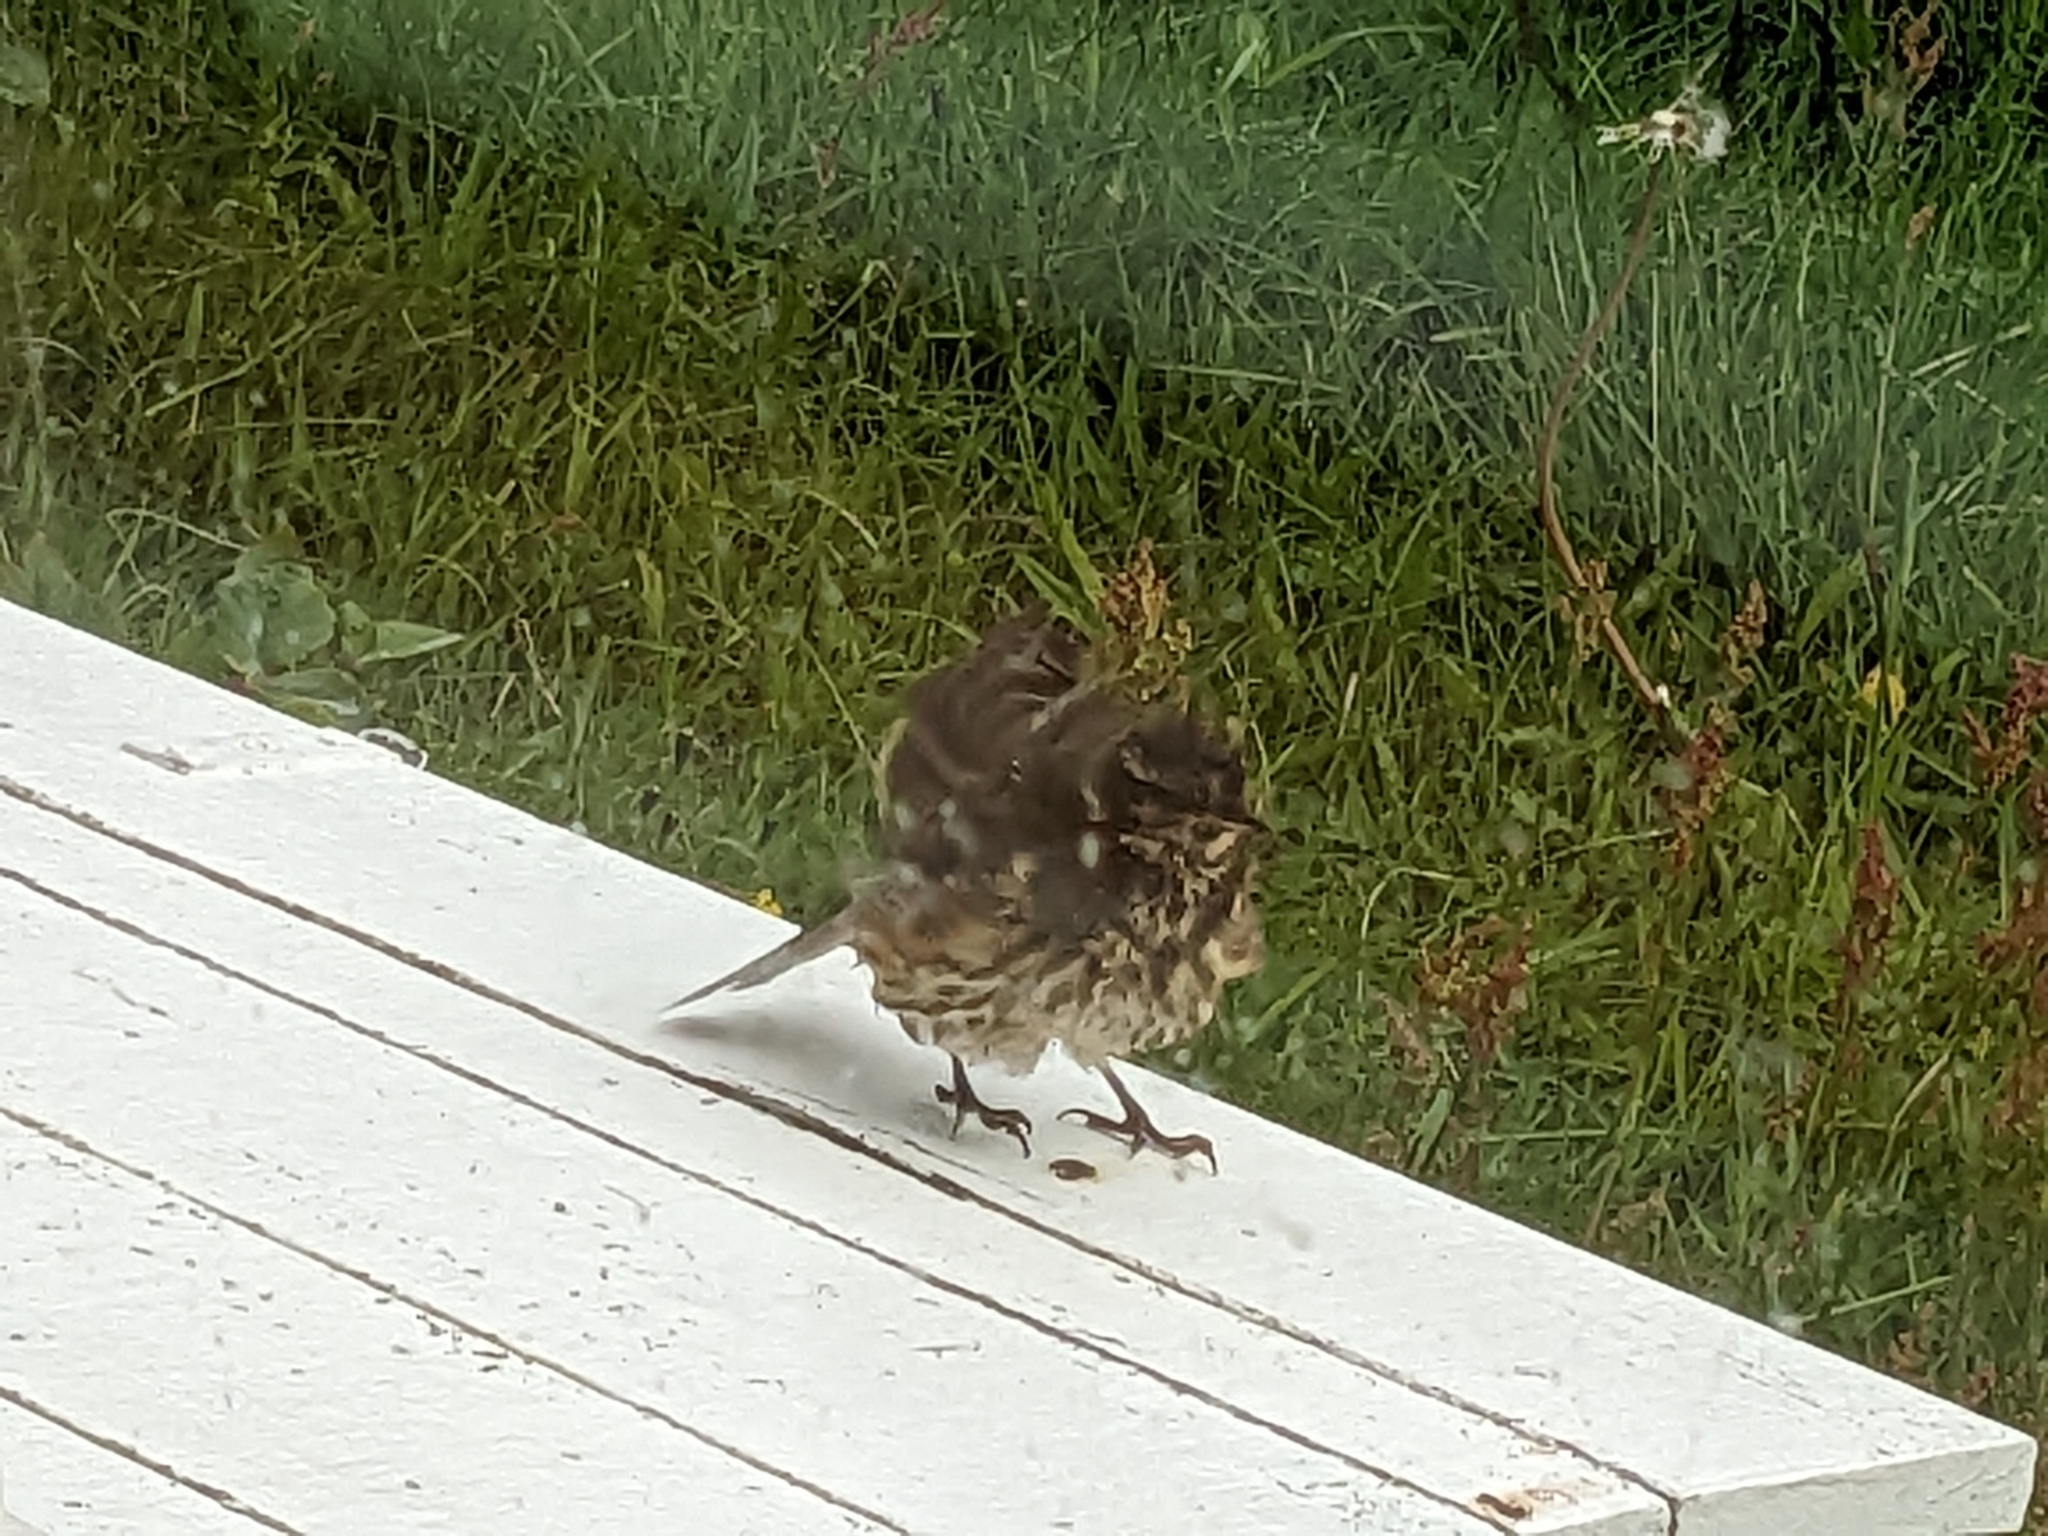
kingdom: Animalia
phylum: Chordata
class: Aves
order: Passeriformes
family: Turdidae
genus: Turdus
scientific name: Turdus iliacus
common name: Redwing
